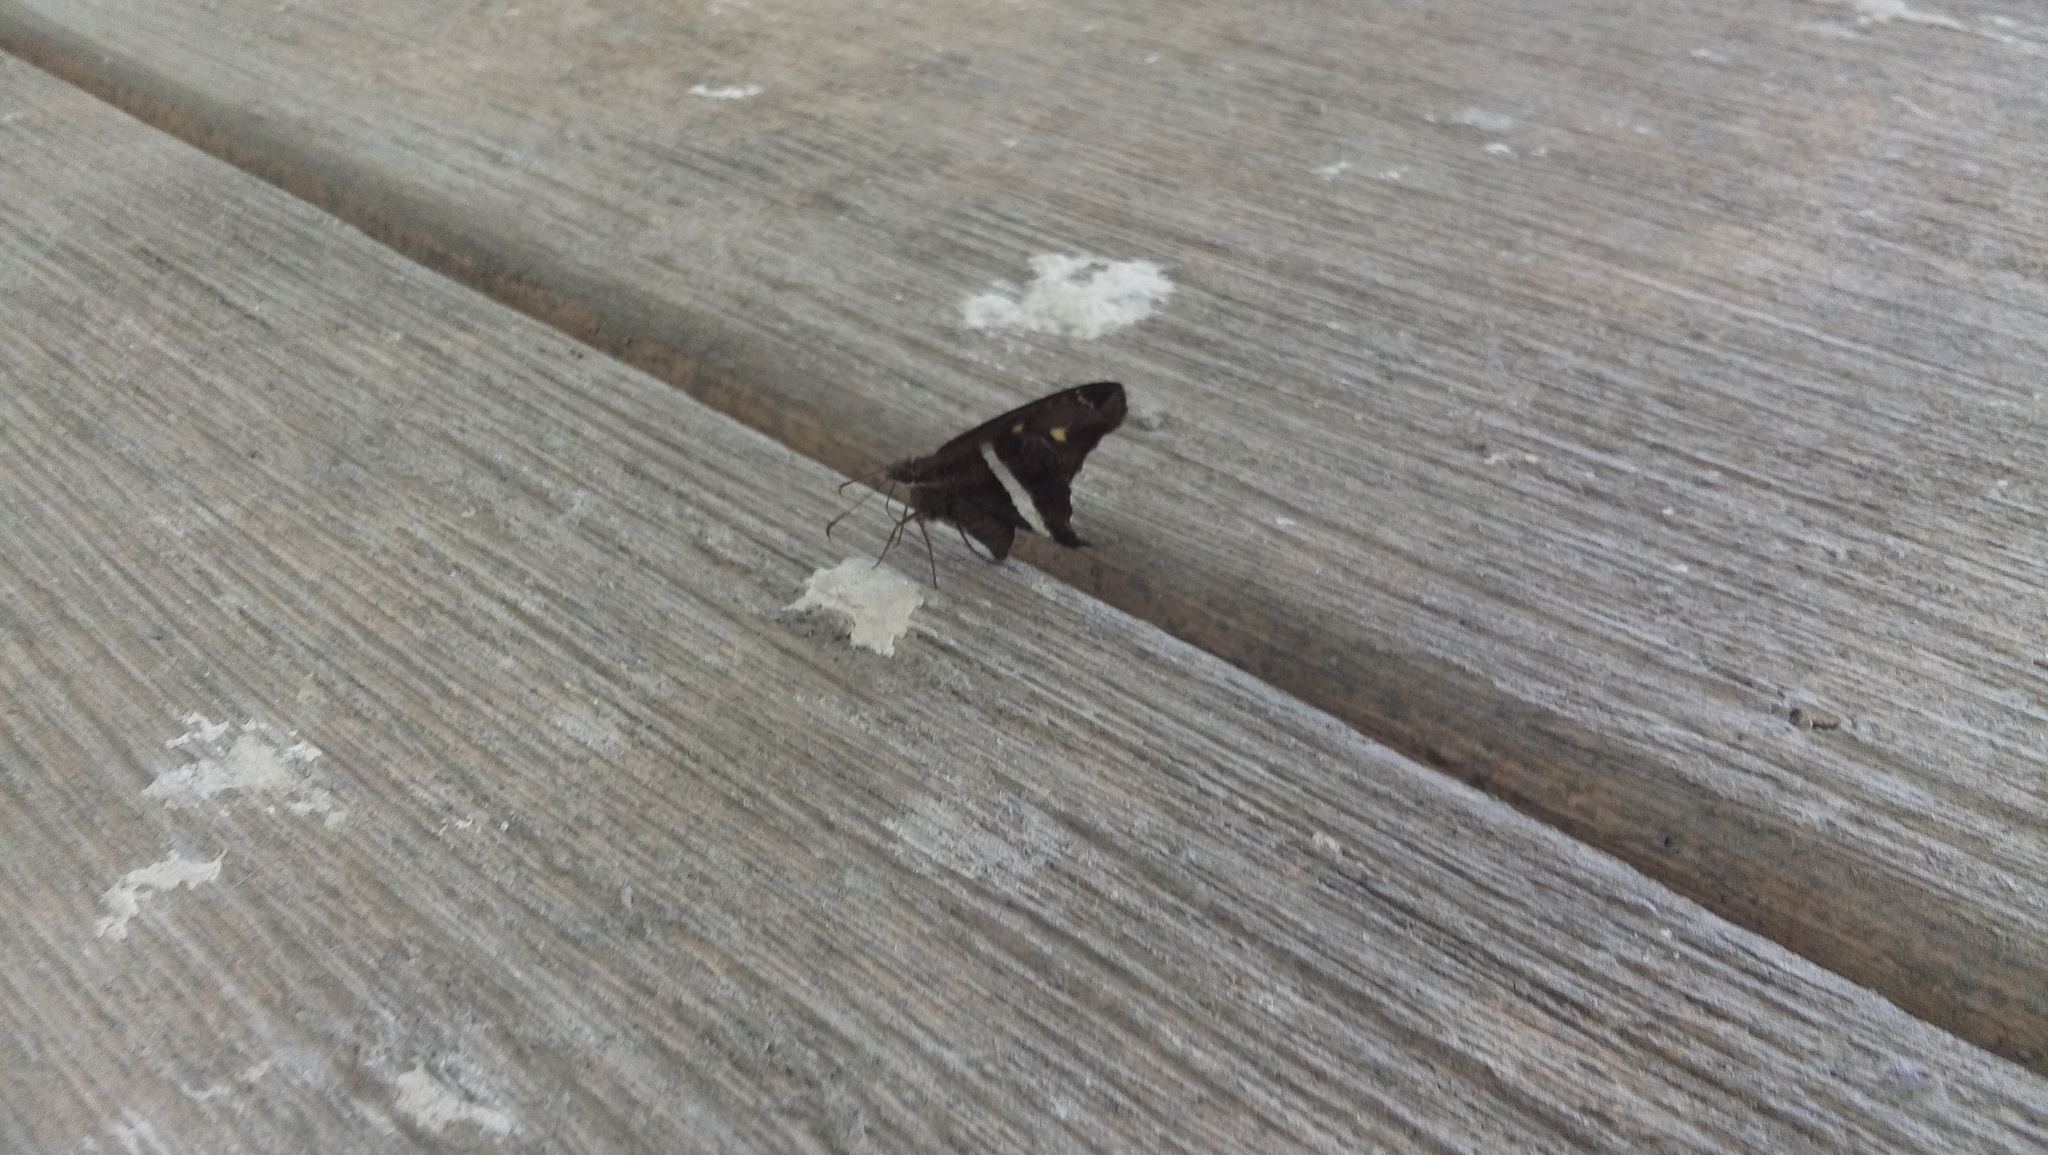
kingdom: Animalia
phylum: Arthropoda
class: Insecta
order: Lepidoptera
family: Hesperiidae
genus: Chioides
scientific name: Chioides catillus
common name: Silverbanded skipper
